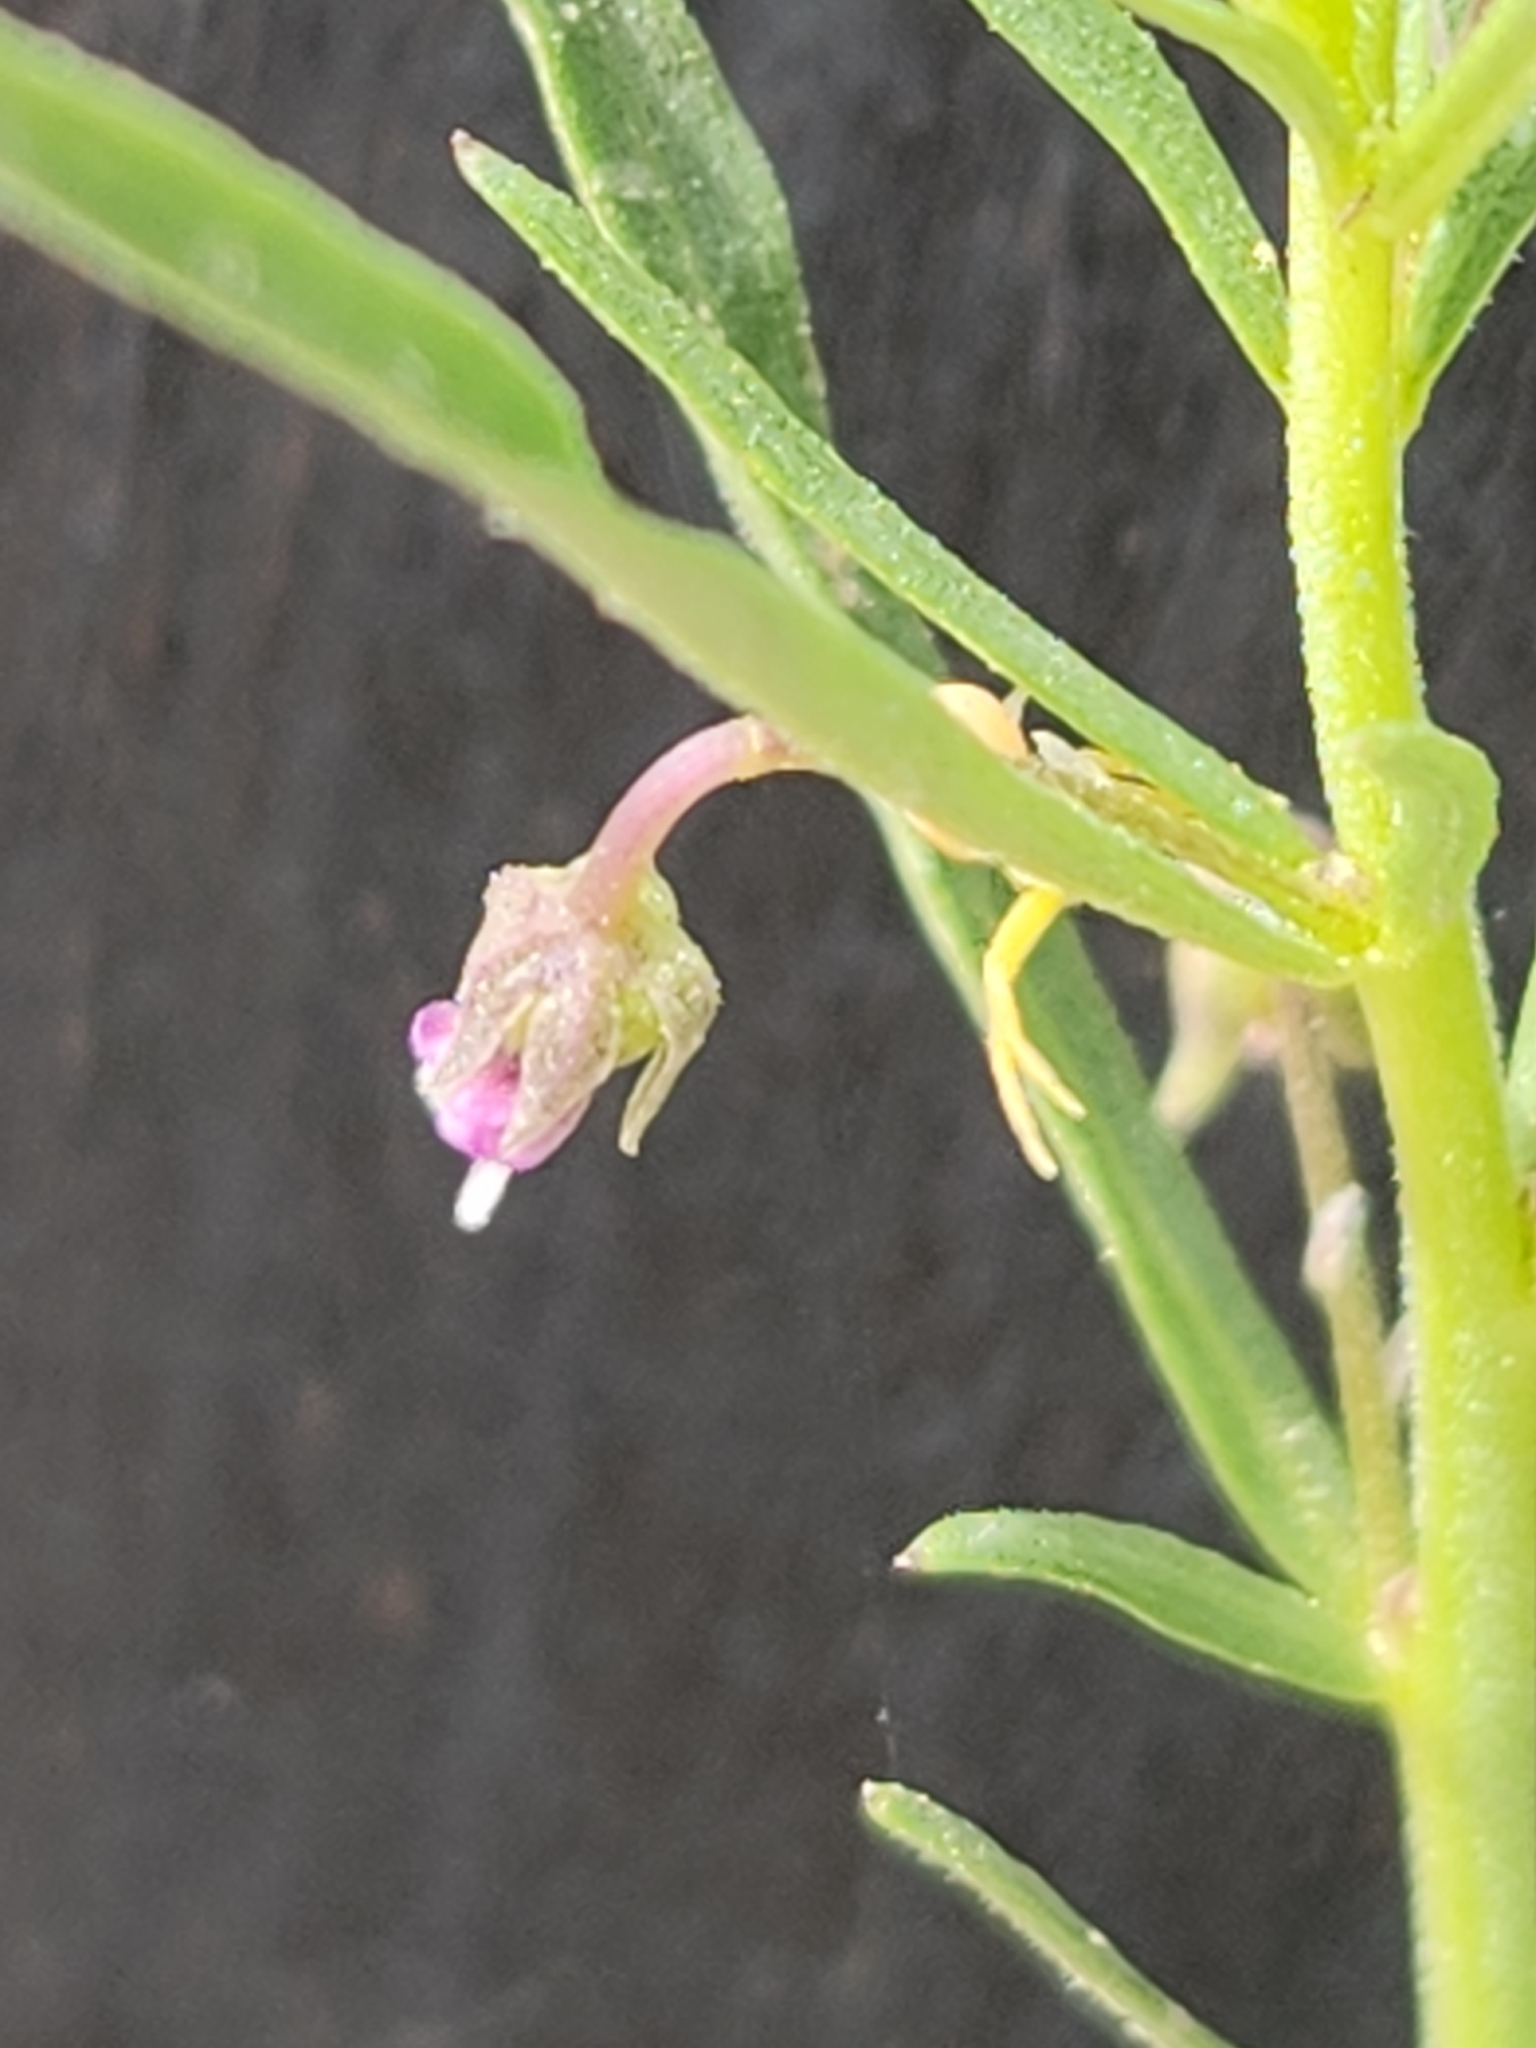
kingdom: Plantae
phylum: Tracheophyta
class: Magnoliopsida
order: Malpighiales
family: Violaceae
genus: Pombalia
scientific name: Pombalia verticillata
